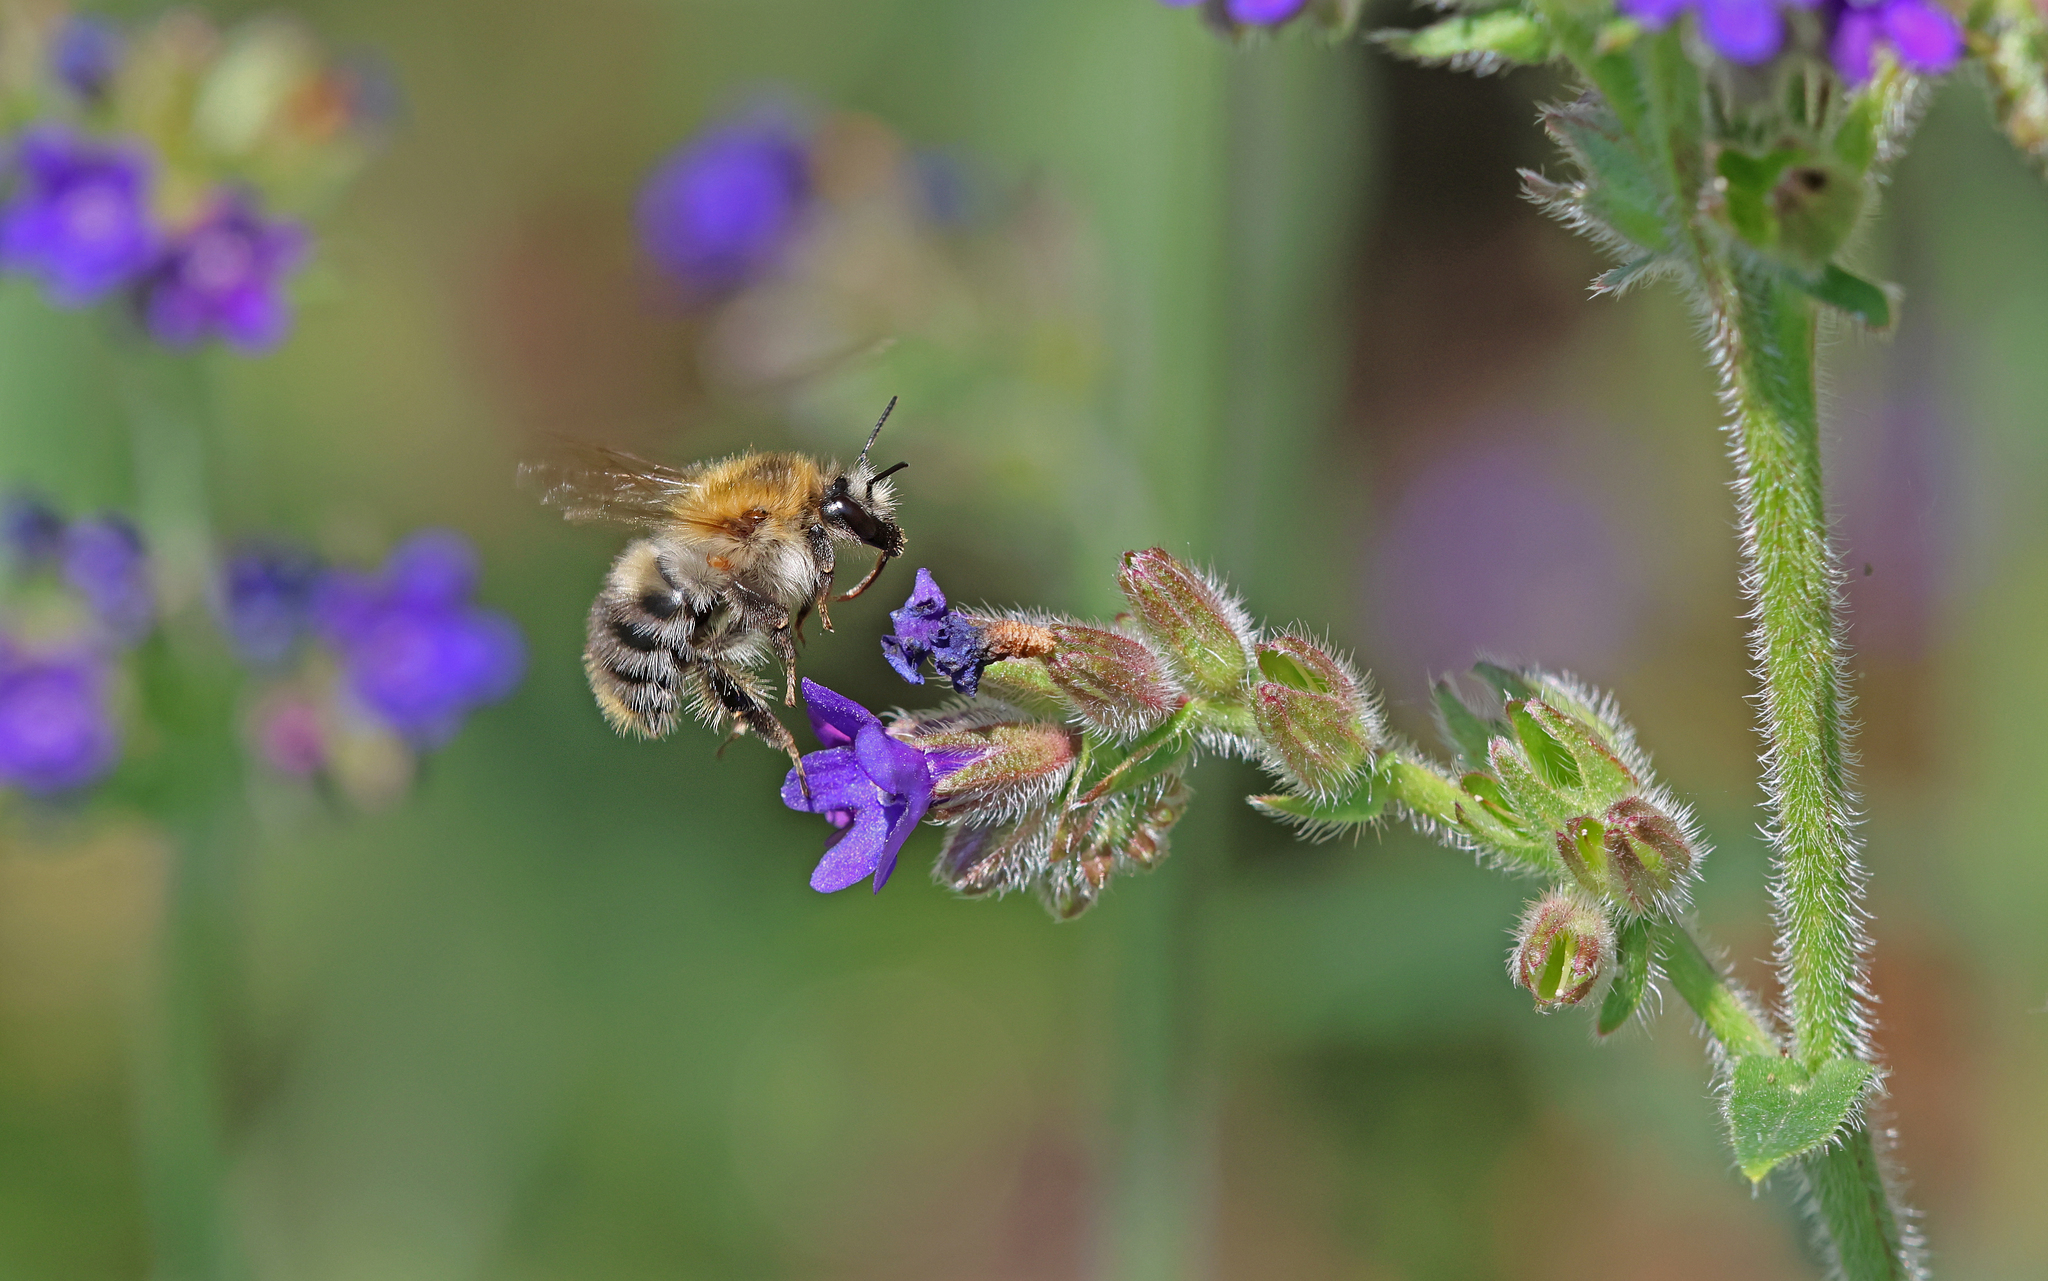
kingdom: Animalia
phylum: Arthropoda
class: Insecta
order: Hymenoptera
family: Apidae
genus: Bombus
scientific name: Bombus pascuorum
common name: Common carder bee
